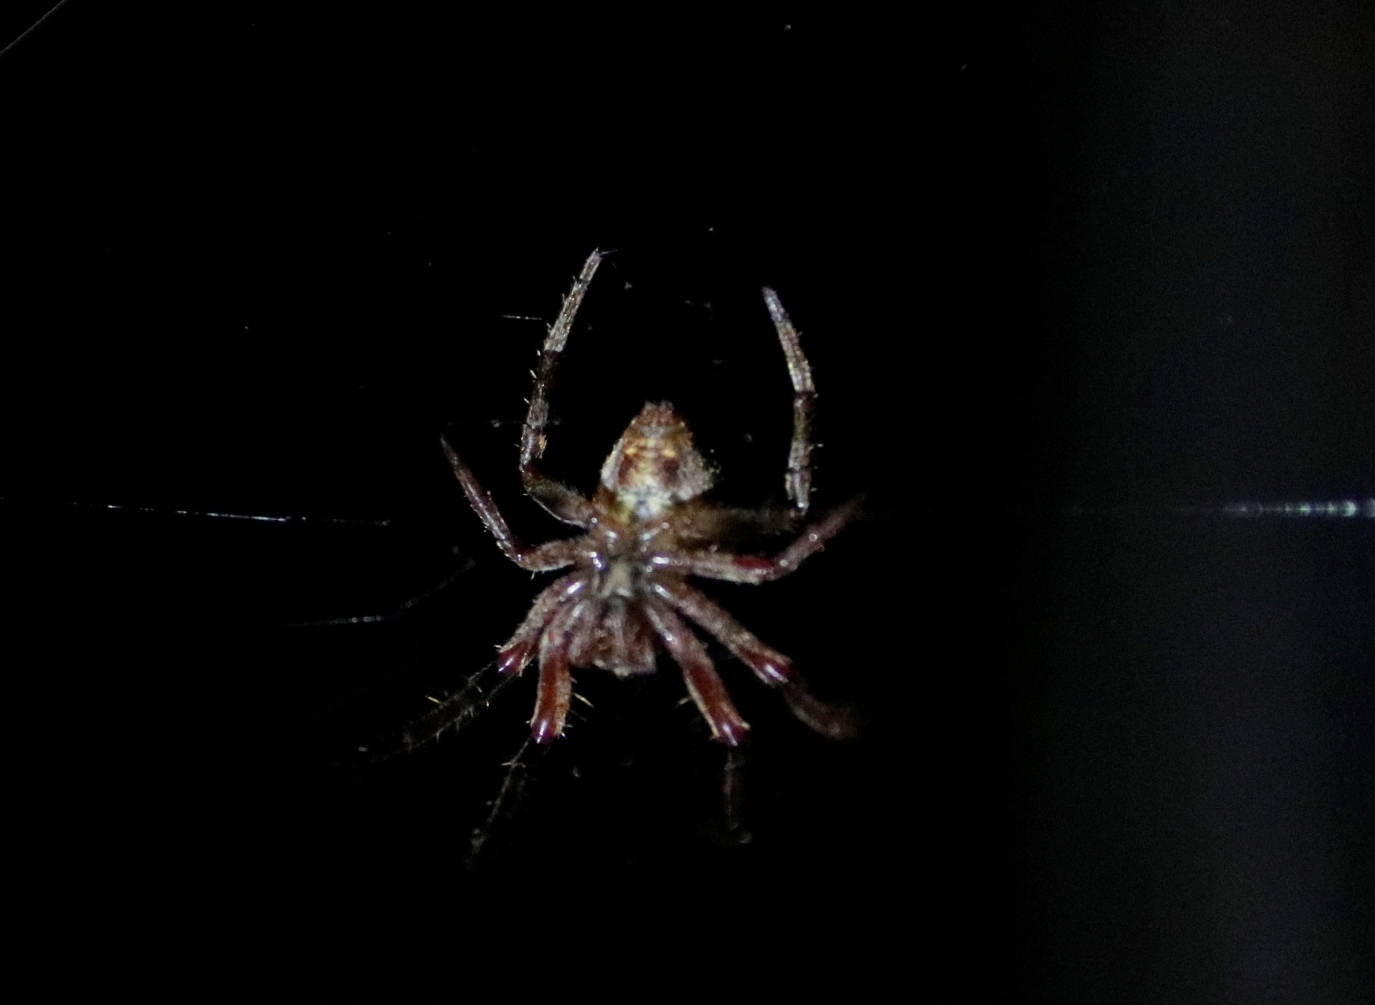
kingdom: Animalia
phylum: Arthropoda
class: Arachnida
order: Araneae
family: Araneidae
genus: Neoscona
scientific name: Neoscona vigilans
